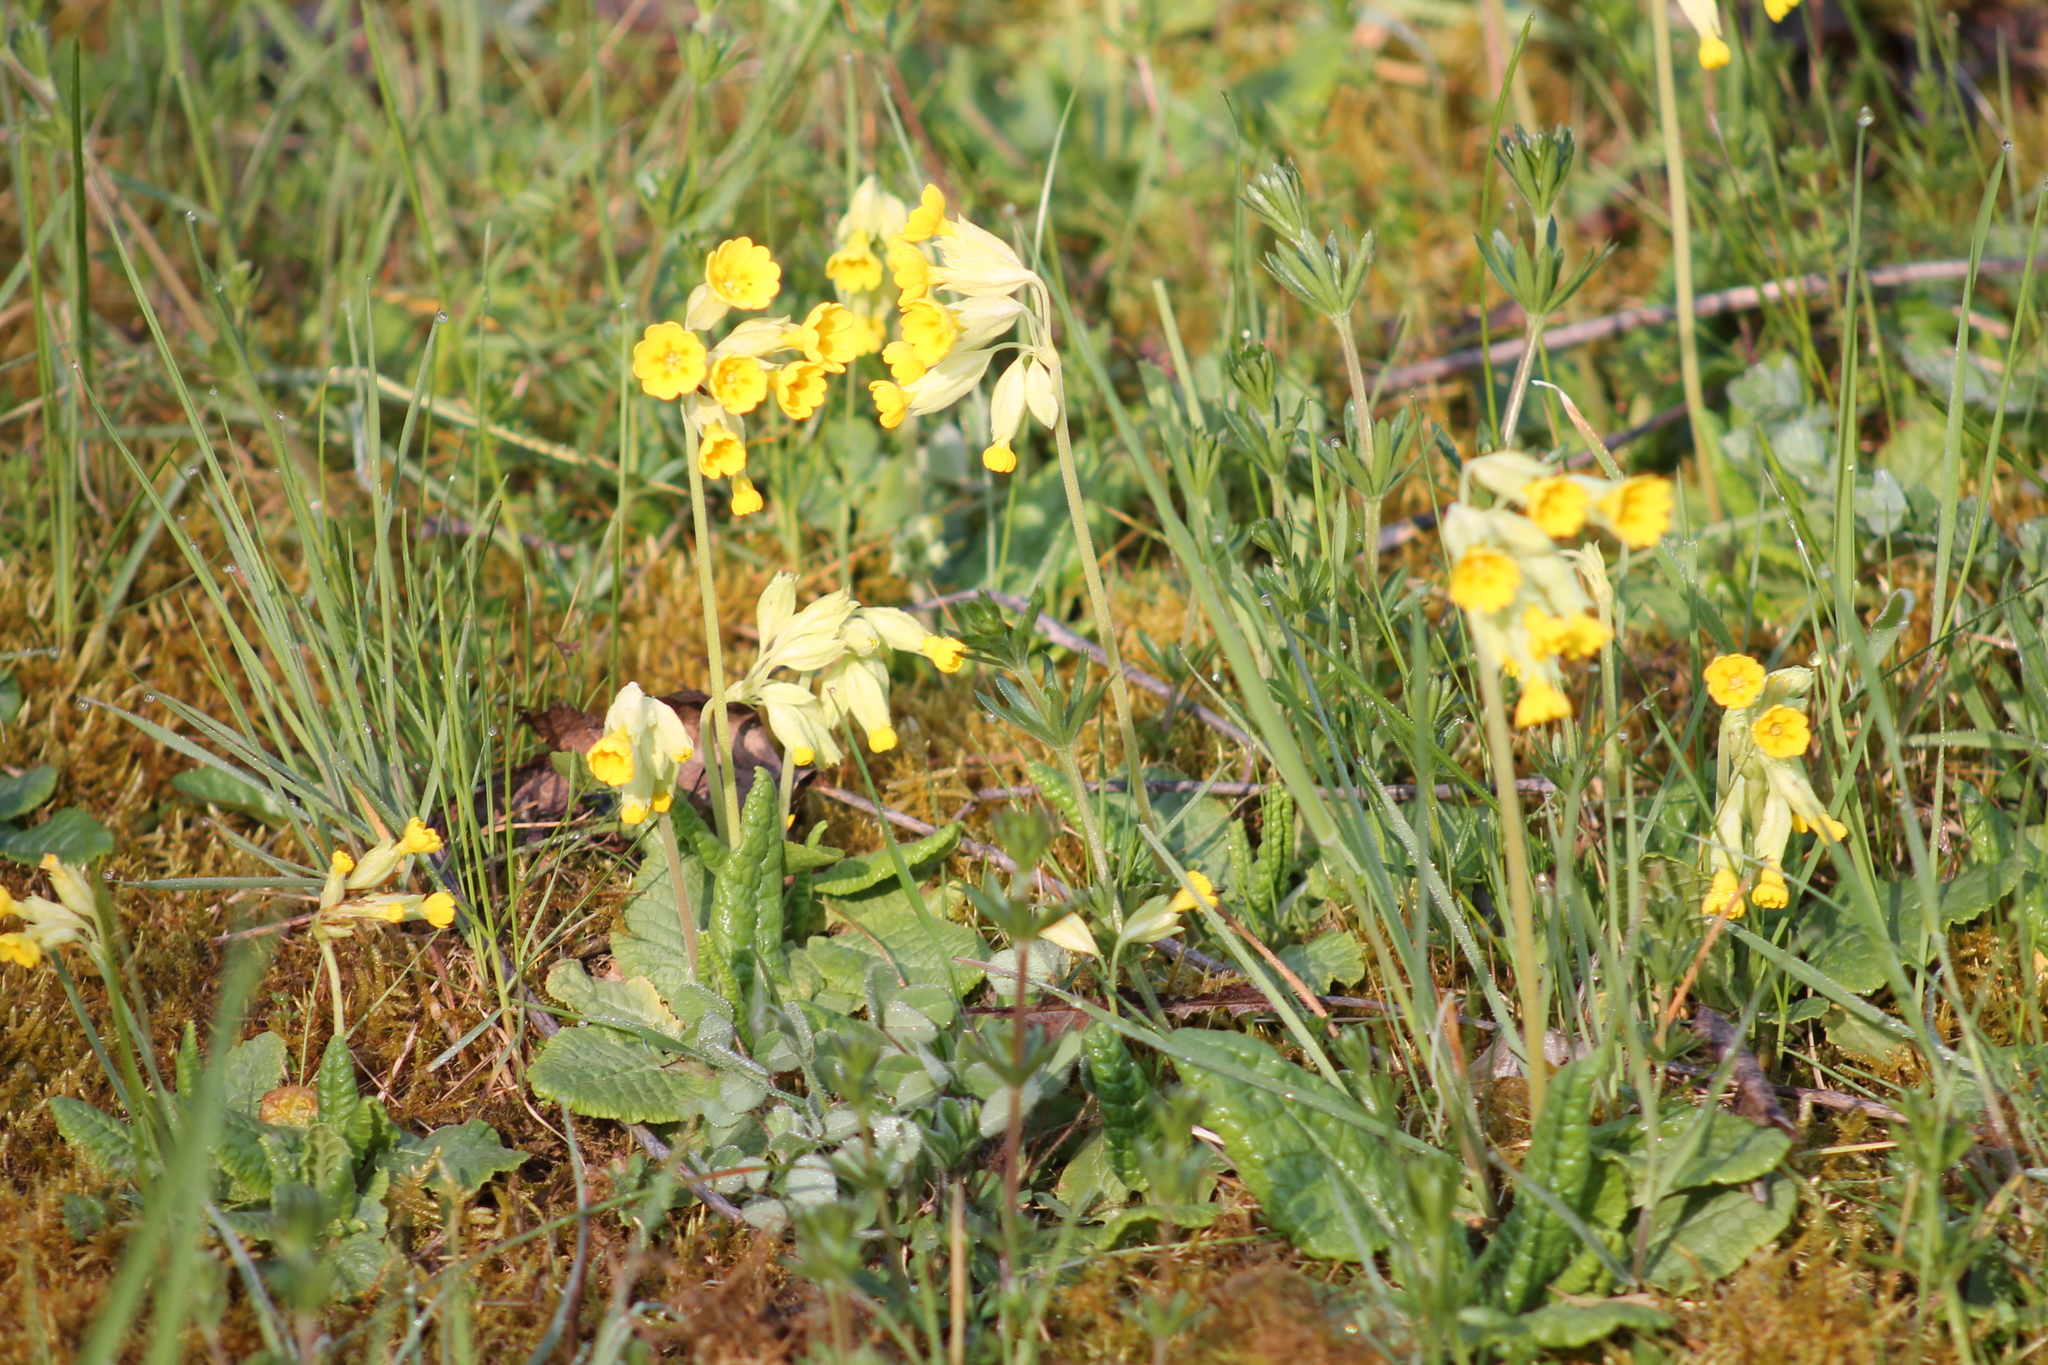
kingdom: Plantae
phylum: Tracheophyta
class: Magnoliopsida
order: Ericales
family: Primulaceae
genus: Primula
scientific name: Primula veris
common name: Cowslip
